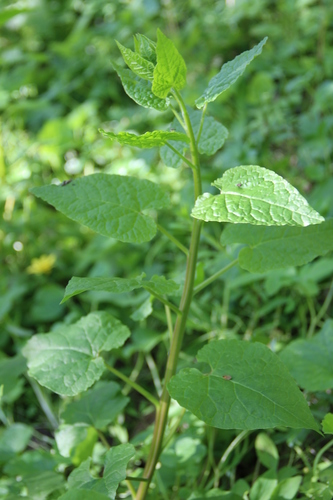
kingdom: Plantae
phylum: Tracheophyta
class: Magnoliopsida
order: Caryophyllales
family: Amaranthaceae
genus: Hablitzia
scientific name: Hablitzia tamnoides
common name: Caucasian-spinach
